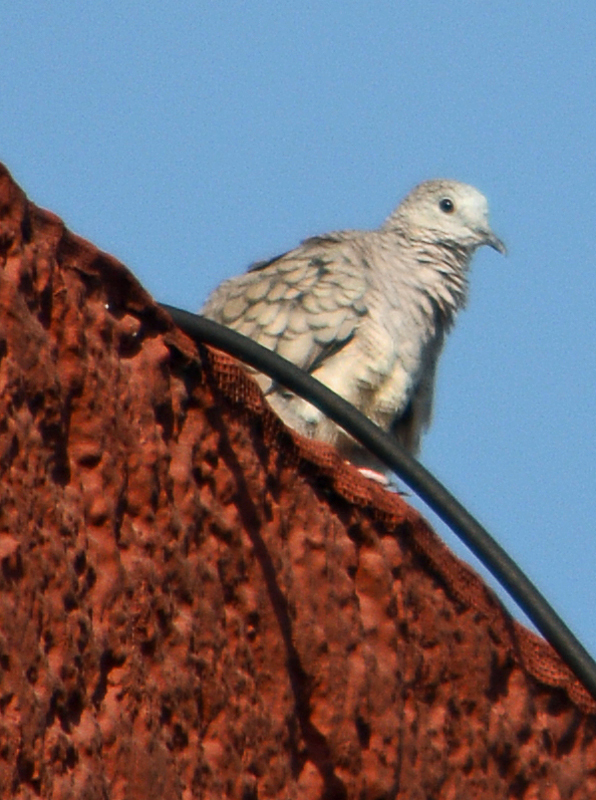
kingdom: Animalia
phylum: Chordata
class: Aves
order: Columbiformes
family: Columbidae
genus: Columbina
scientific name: Columbina inca
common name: Inca dove
